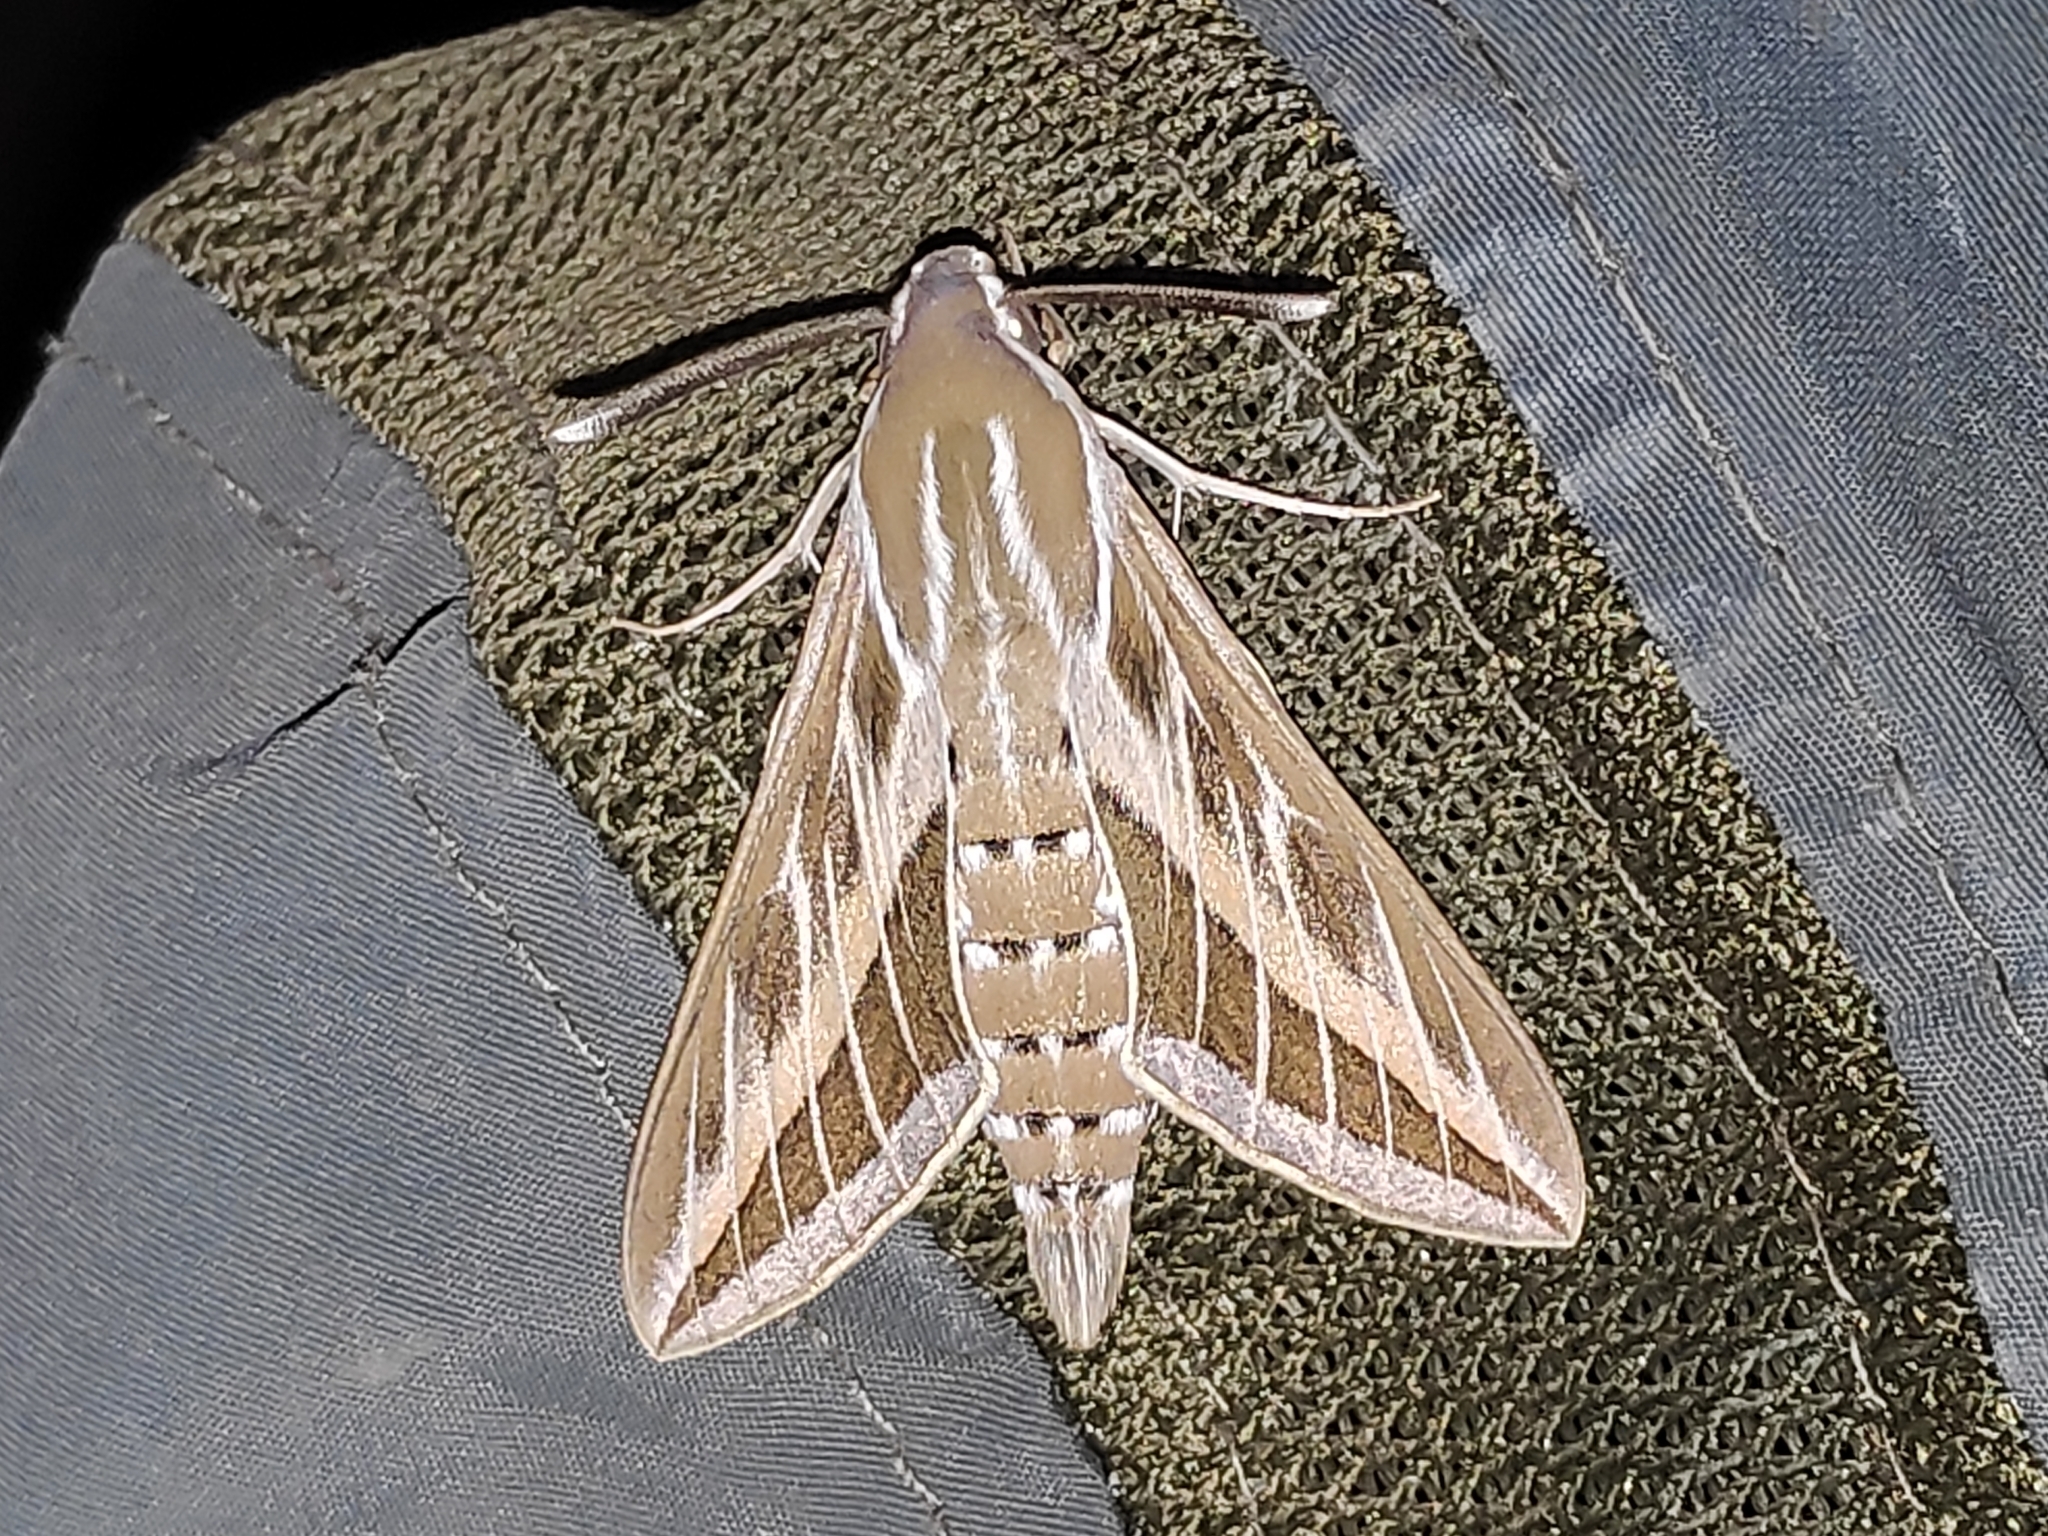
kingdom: Animalia
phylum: Arthropoda
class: Insecta
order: Lepidoptera
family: Sphingidae
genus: Hyles
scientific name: Hyles livornica
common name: Striped hawk-moth
